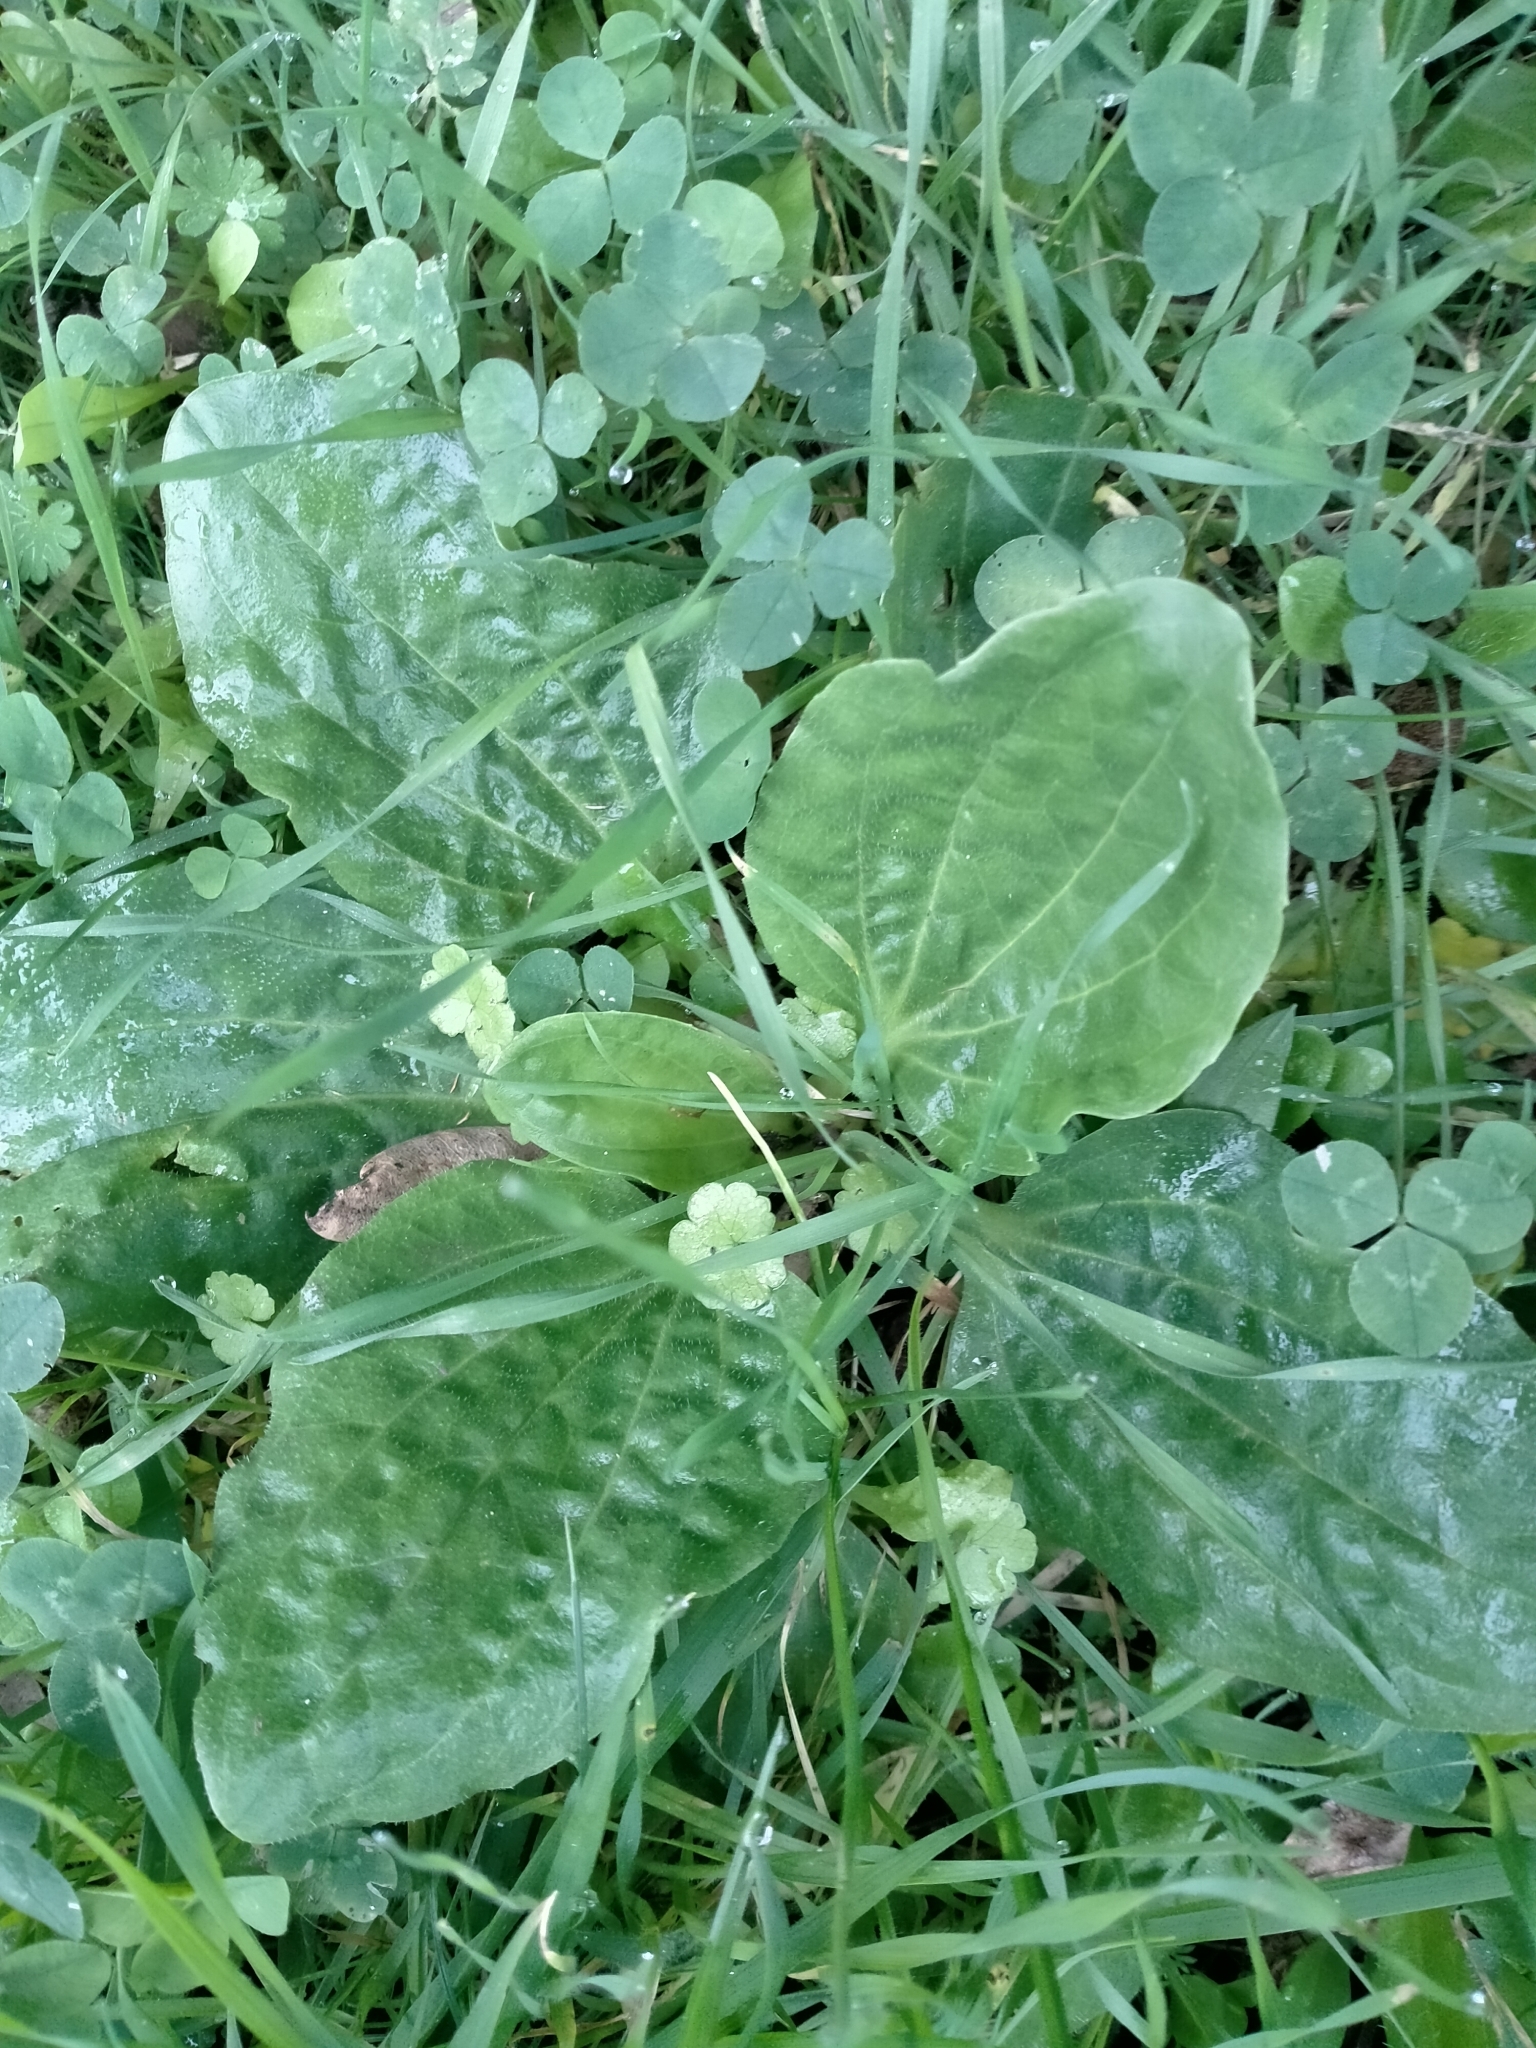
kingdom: Plantae
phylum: Tracheophyta
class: Magnoliopsida
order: Lamiales
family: Plantaginaceae
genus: Plantago
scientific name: Plantago major
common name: Common plantain
